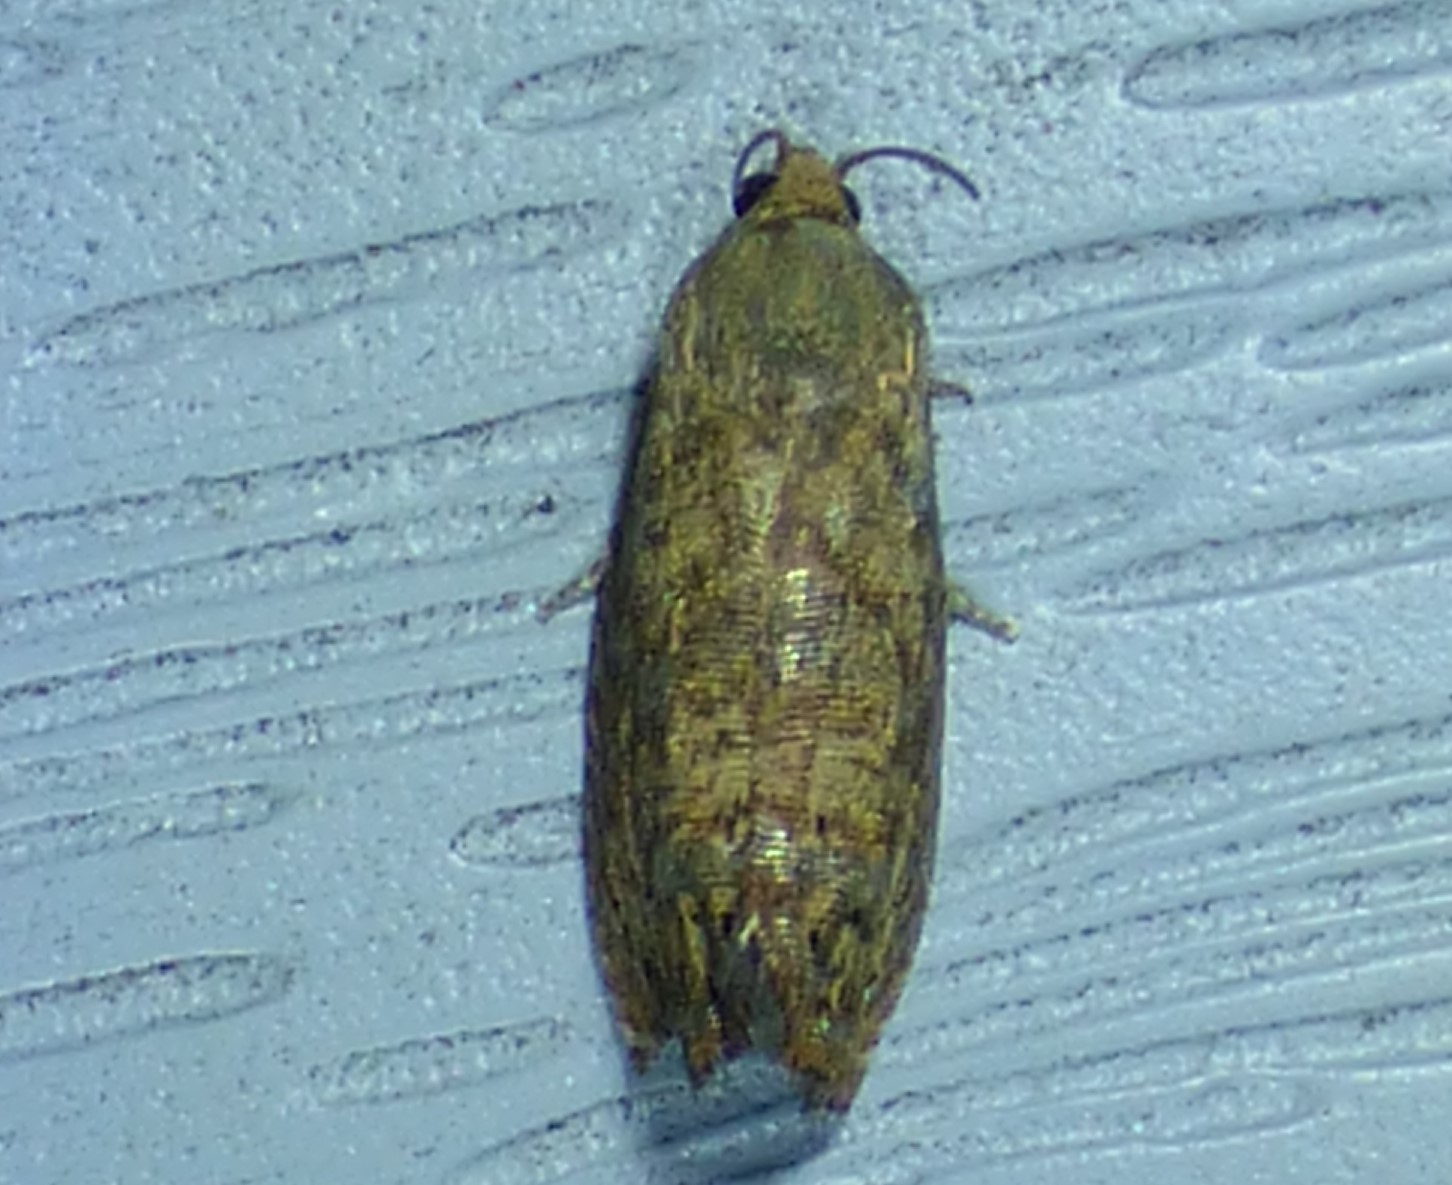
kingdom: Animalia
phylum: Arthropoda
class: Insecta
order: Lepidoptera
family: Tortricidae
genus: Cydia
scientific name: Cydia latiferreana
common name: Filbertworm moth
